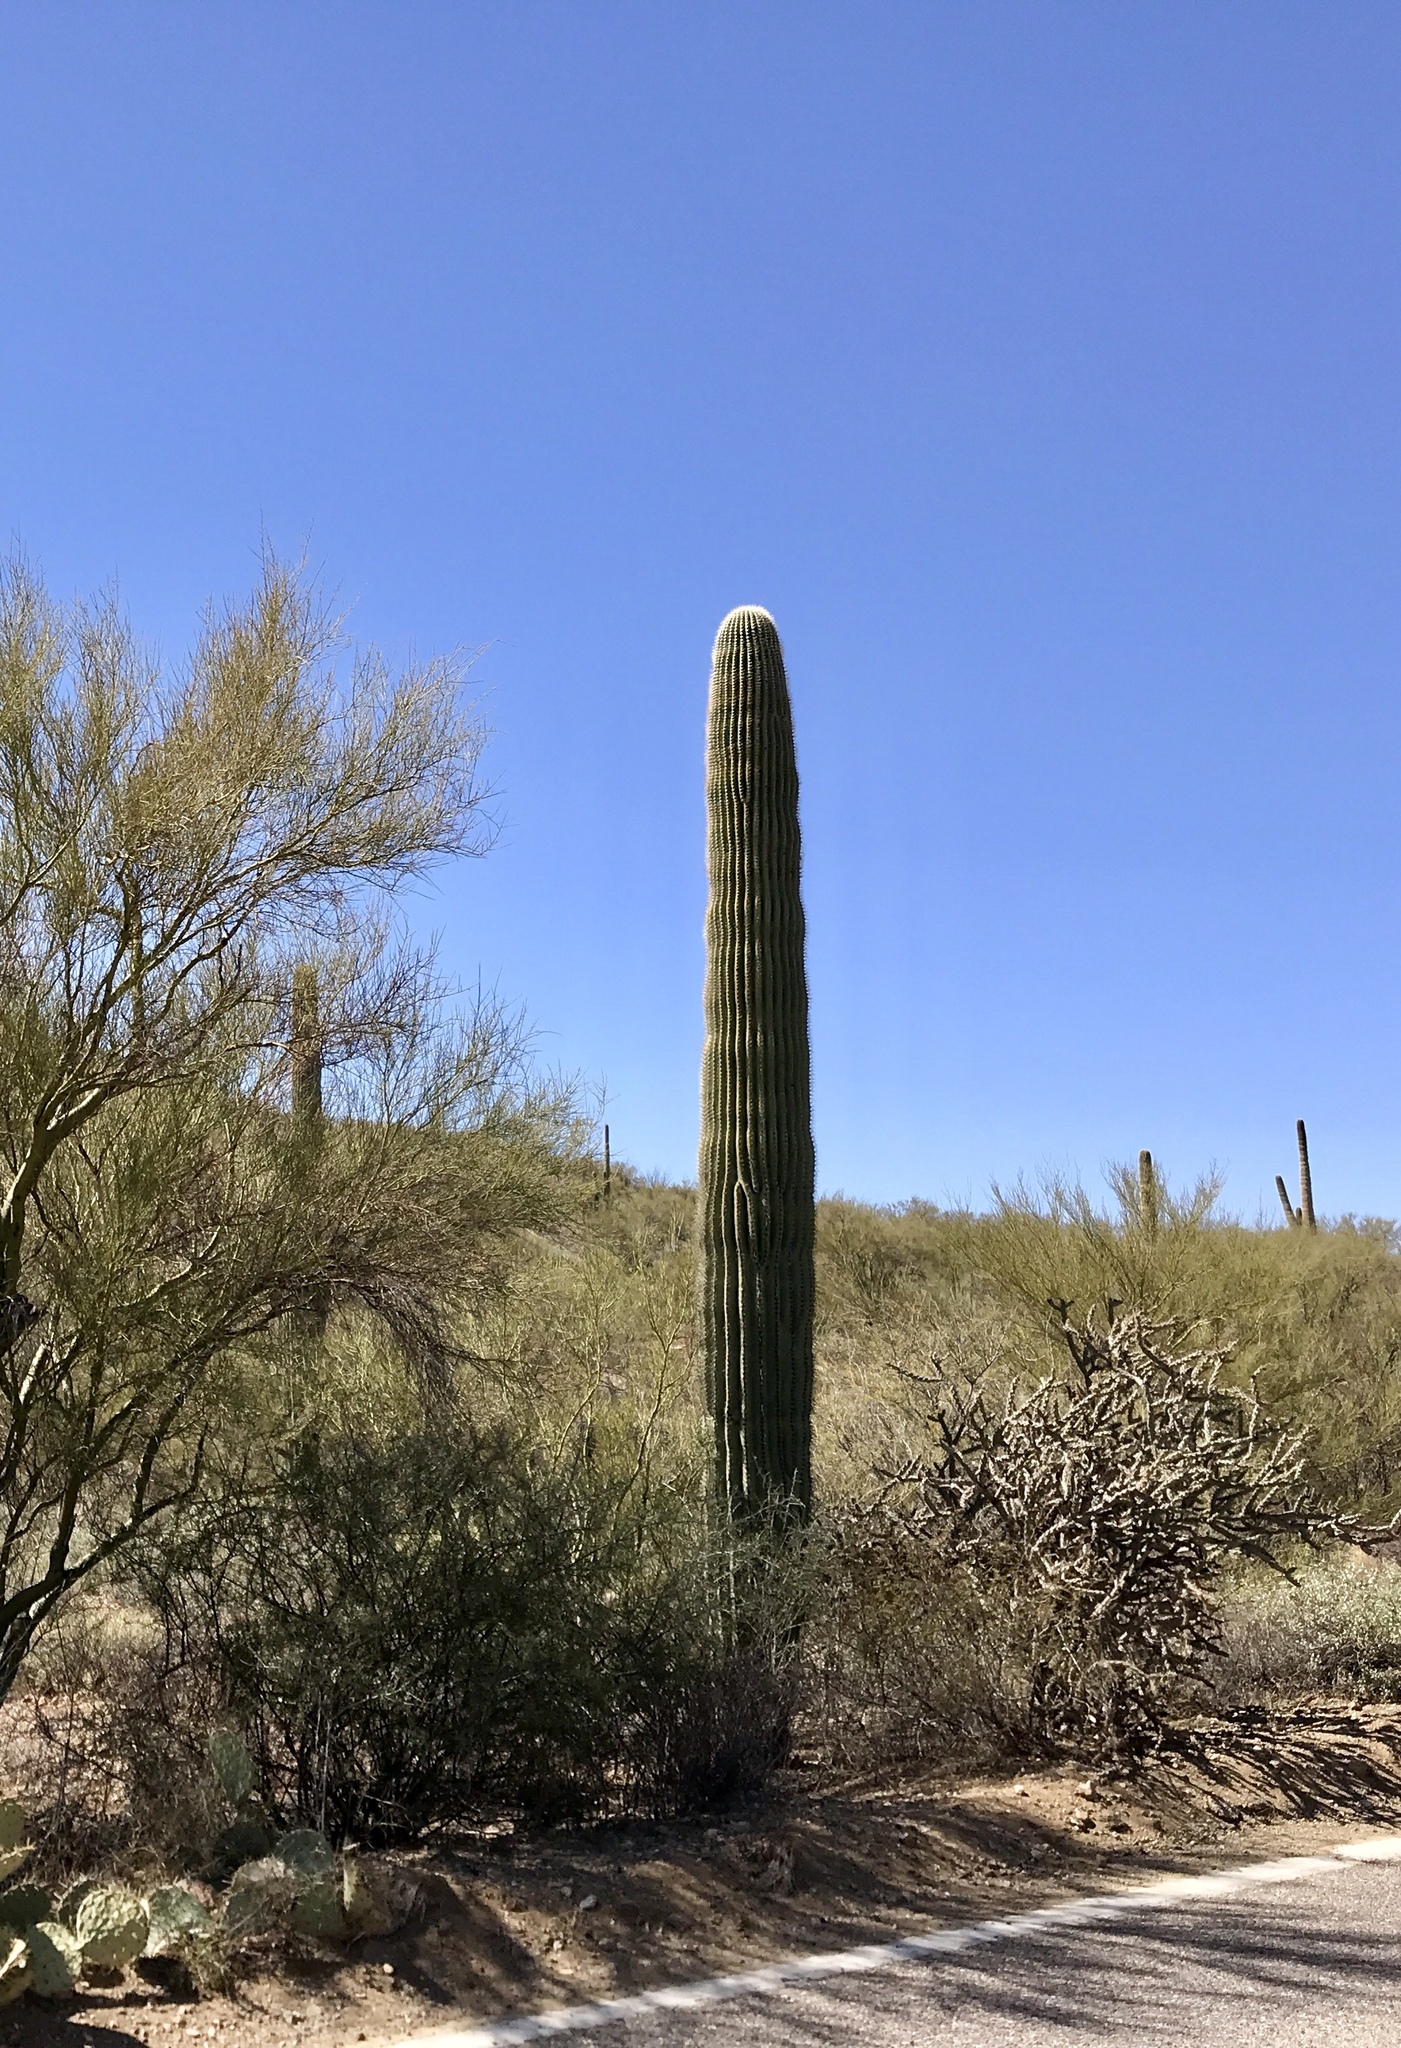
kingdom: Plantae
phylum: Tracheophyta
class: Magnoliopsida
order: Caryophyllales
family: Cactaceae
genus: Carnegiea
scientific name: Carnegiea gigantea
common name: Saguaro
